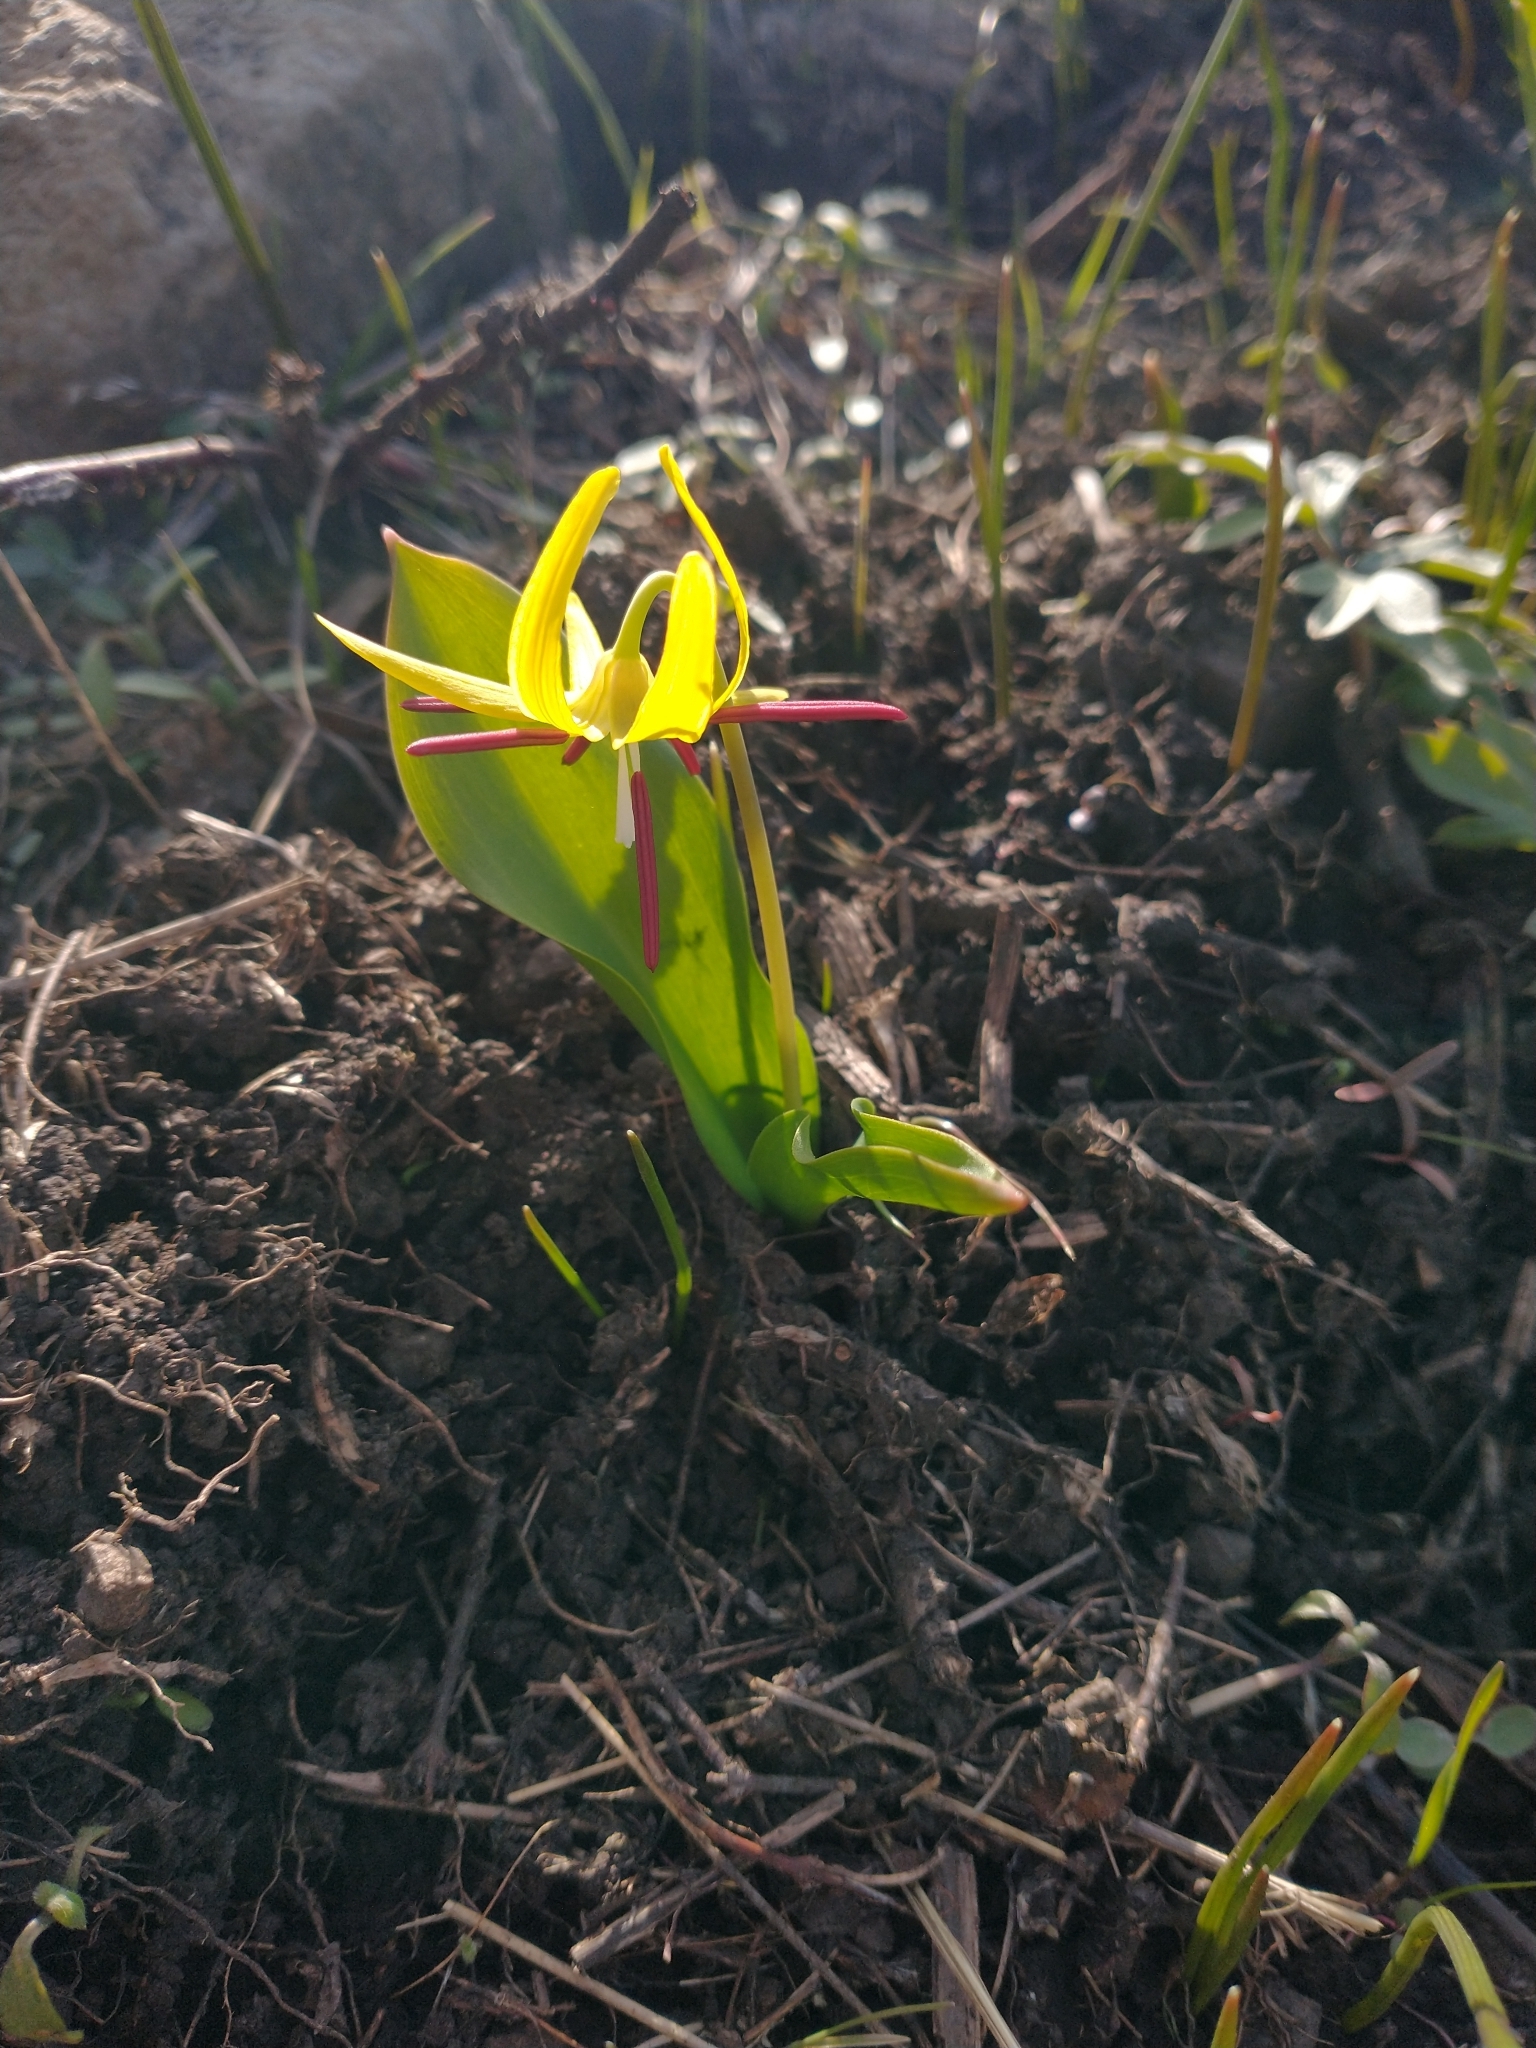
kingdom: Plantae
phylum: Tracheophyta
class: Liliopsida
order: Liliales
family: Liliaceae
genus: Erythronium
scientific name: Erythronium grandiflorum
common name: Avalanche-lily
